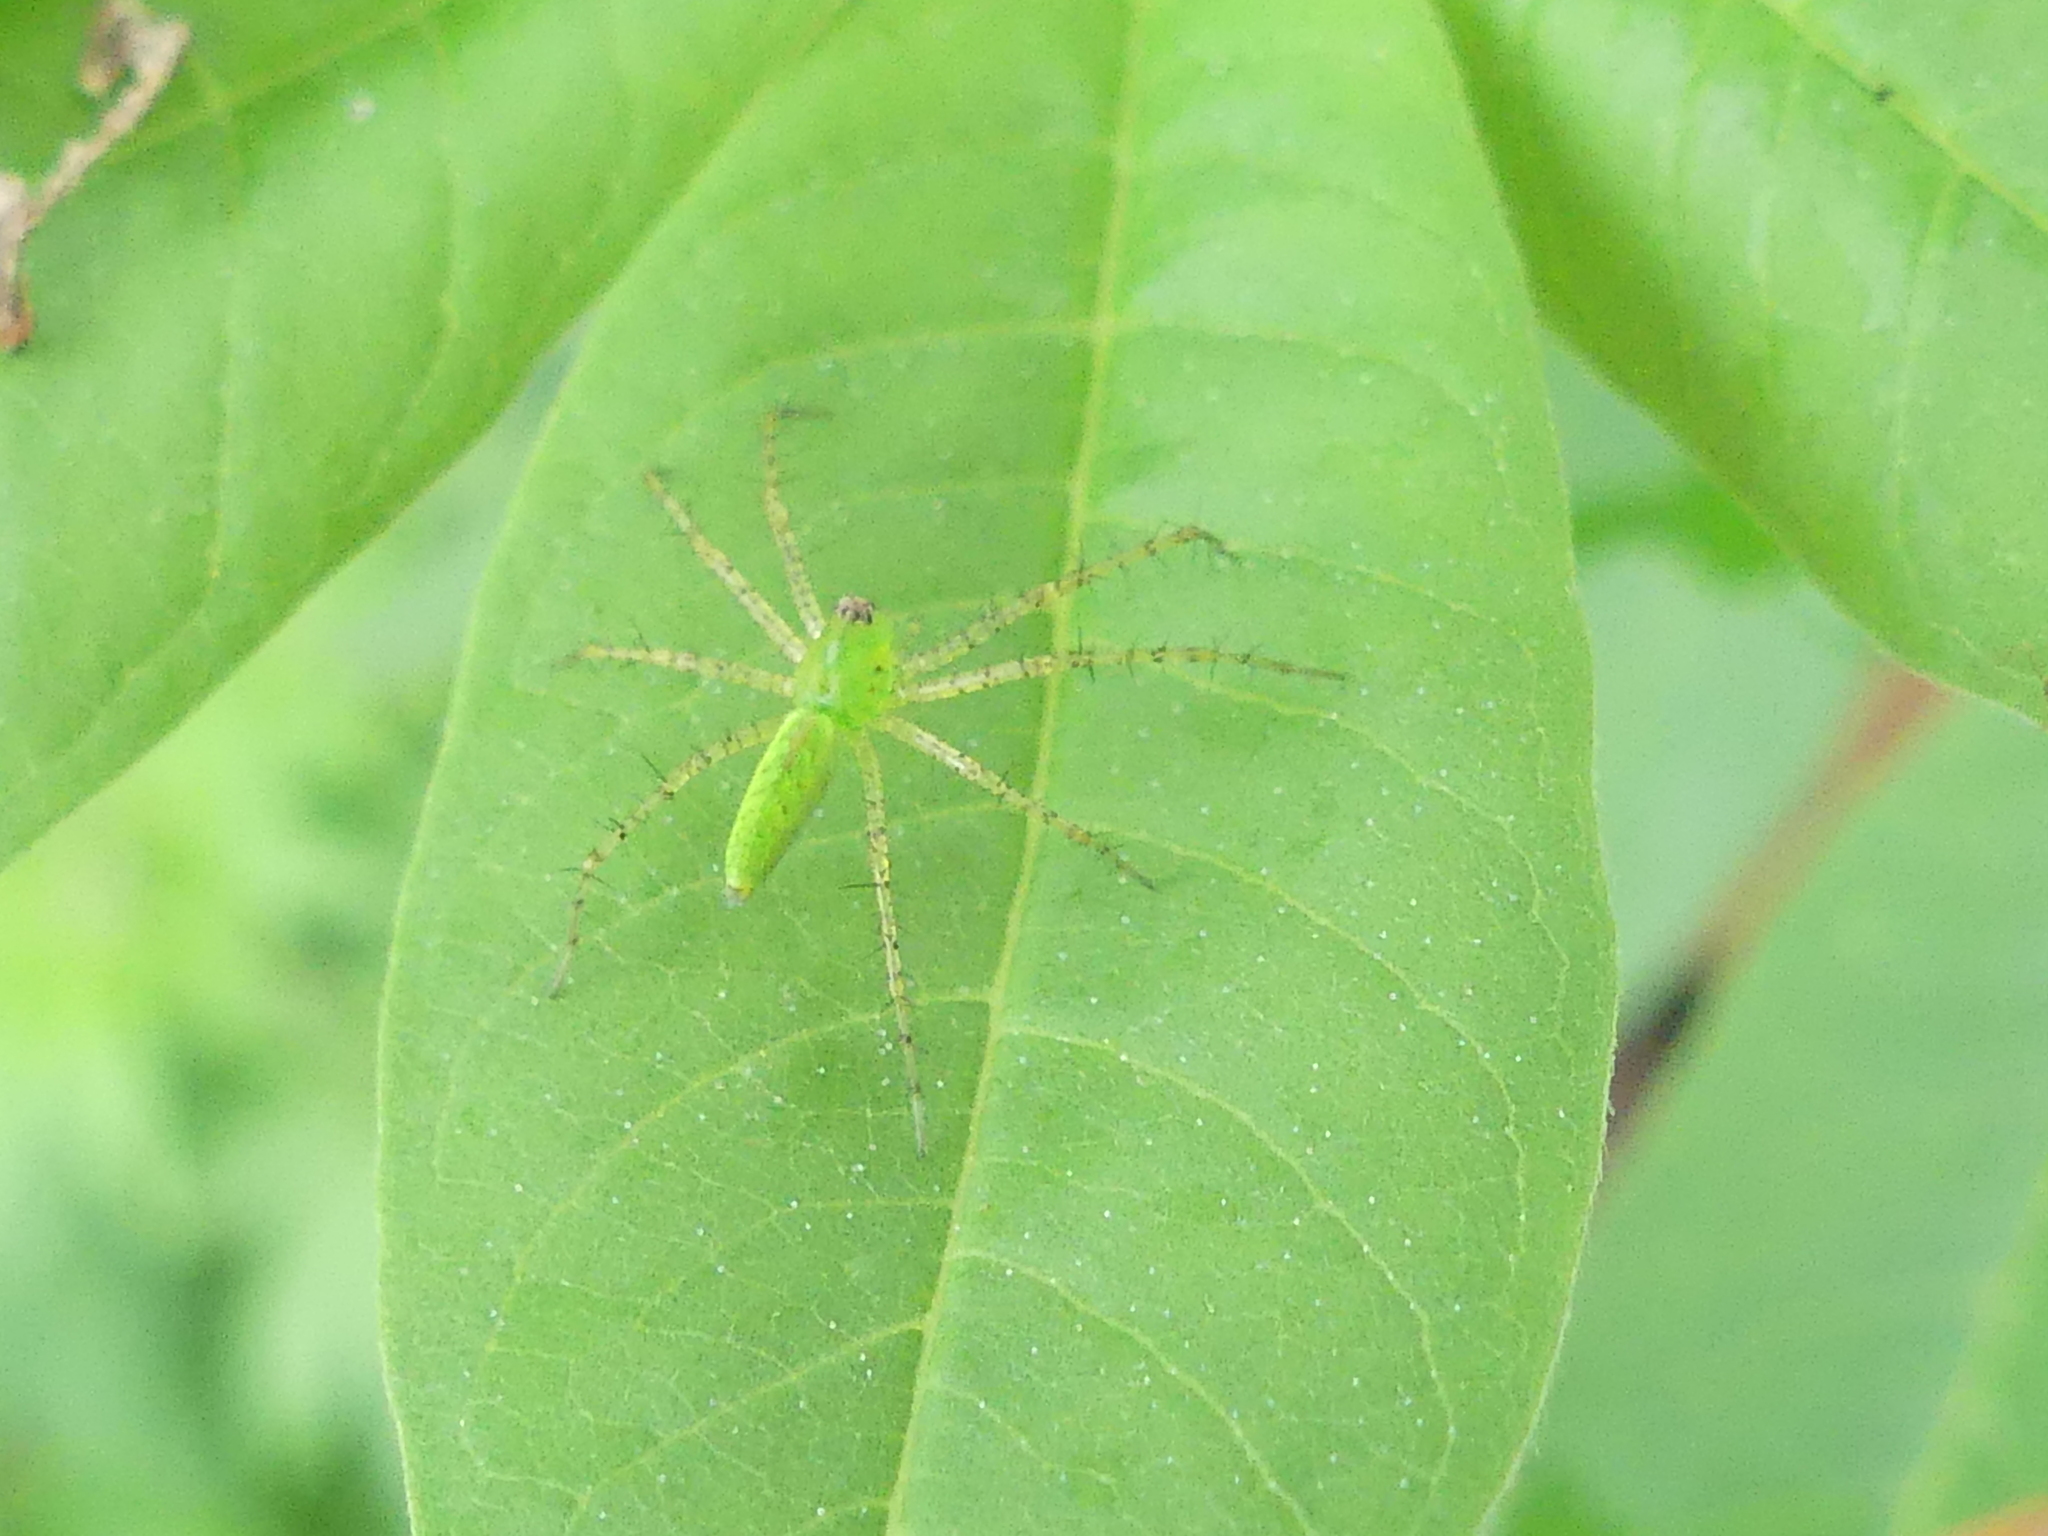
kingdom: Animalia
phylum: Arthropoda
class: Arachnida
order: Araneae
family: Oxyopidae
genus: Peucetia
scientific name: Peucetia viridans
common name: Lynx spiders
